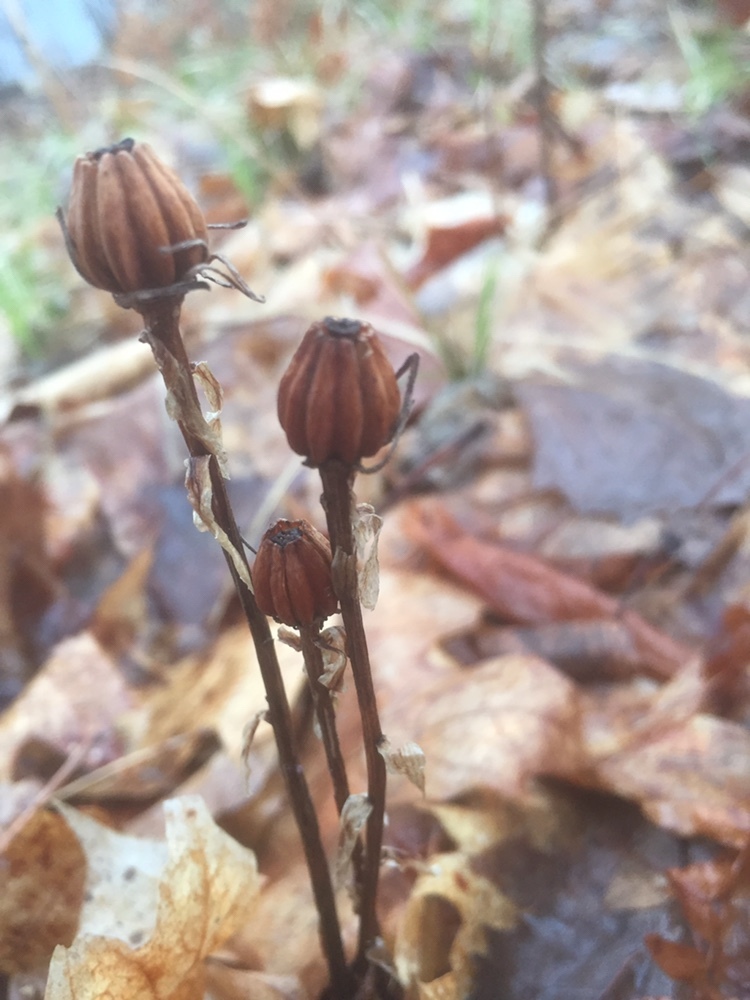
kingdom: Plantae
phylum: Tracheophyta
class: Magnoliopsida
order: Ericales
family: Ericaceae
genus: Monotropa
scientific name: Monotropa uniflora
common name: Convulsion root
